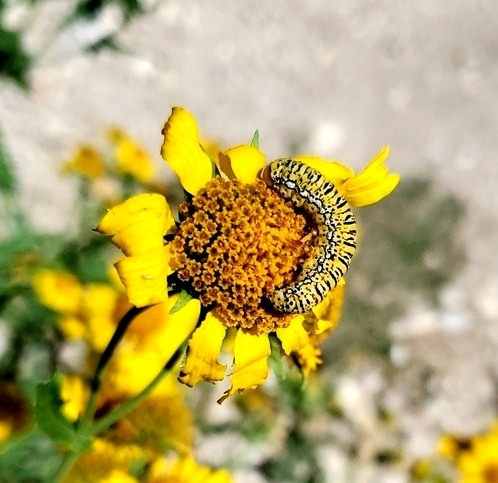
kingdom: Animalia
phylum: Arthropoda
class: Insecta
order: Lepidoptera
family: Noctuidae
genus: Basilodes
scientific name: Basilodes chrysopis
